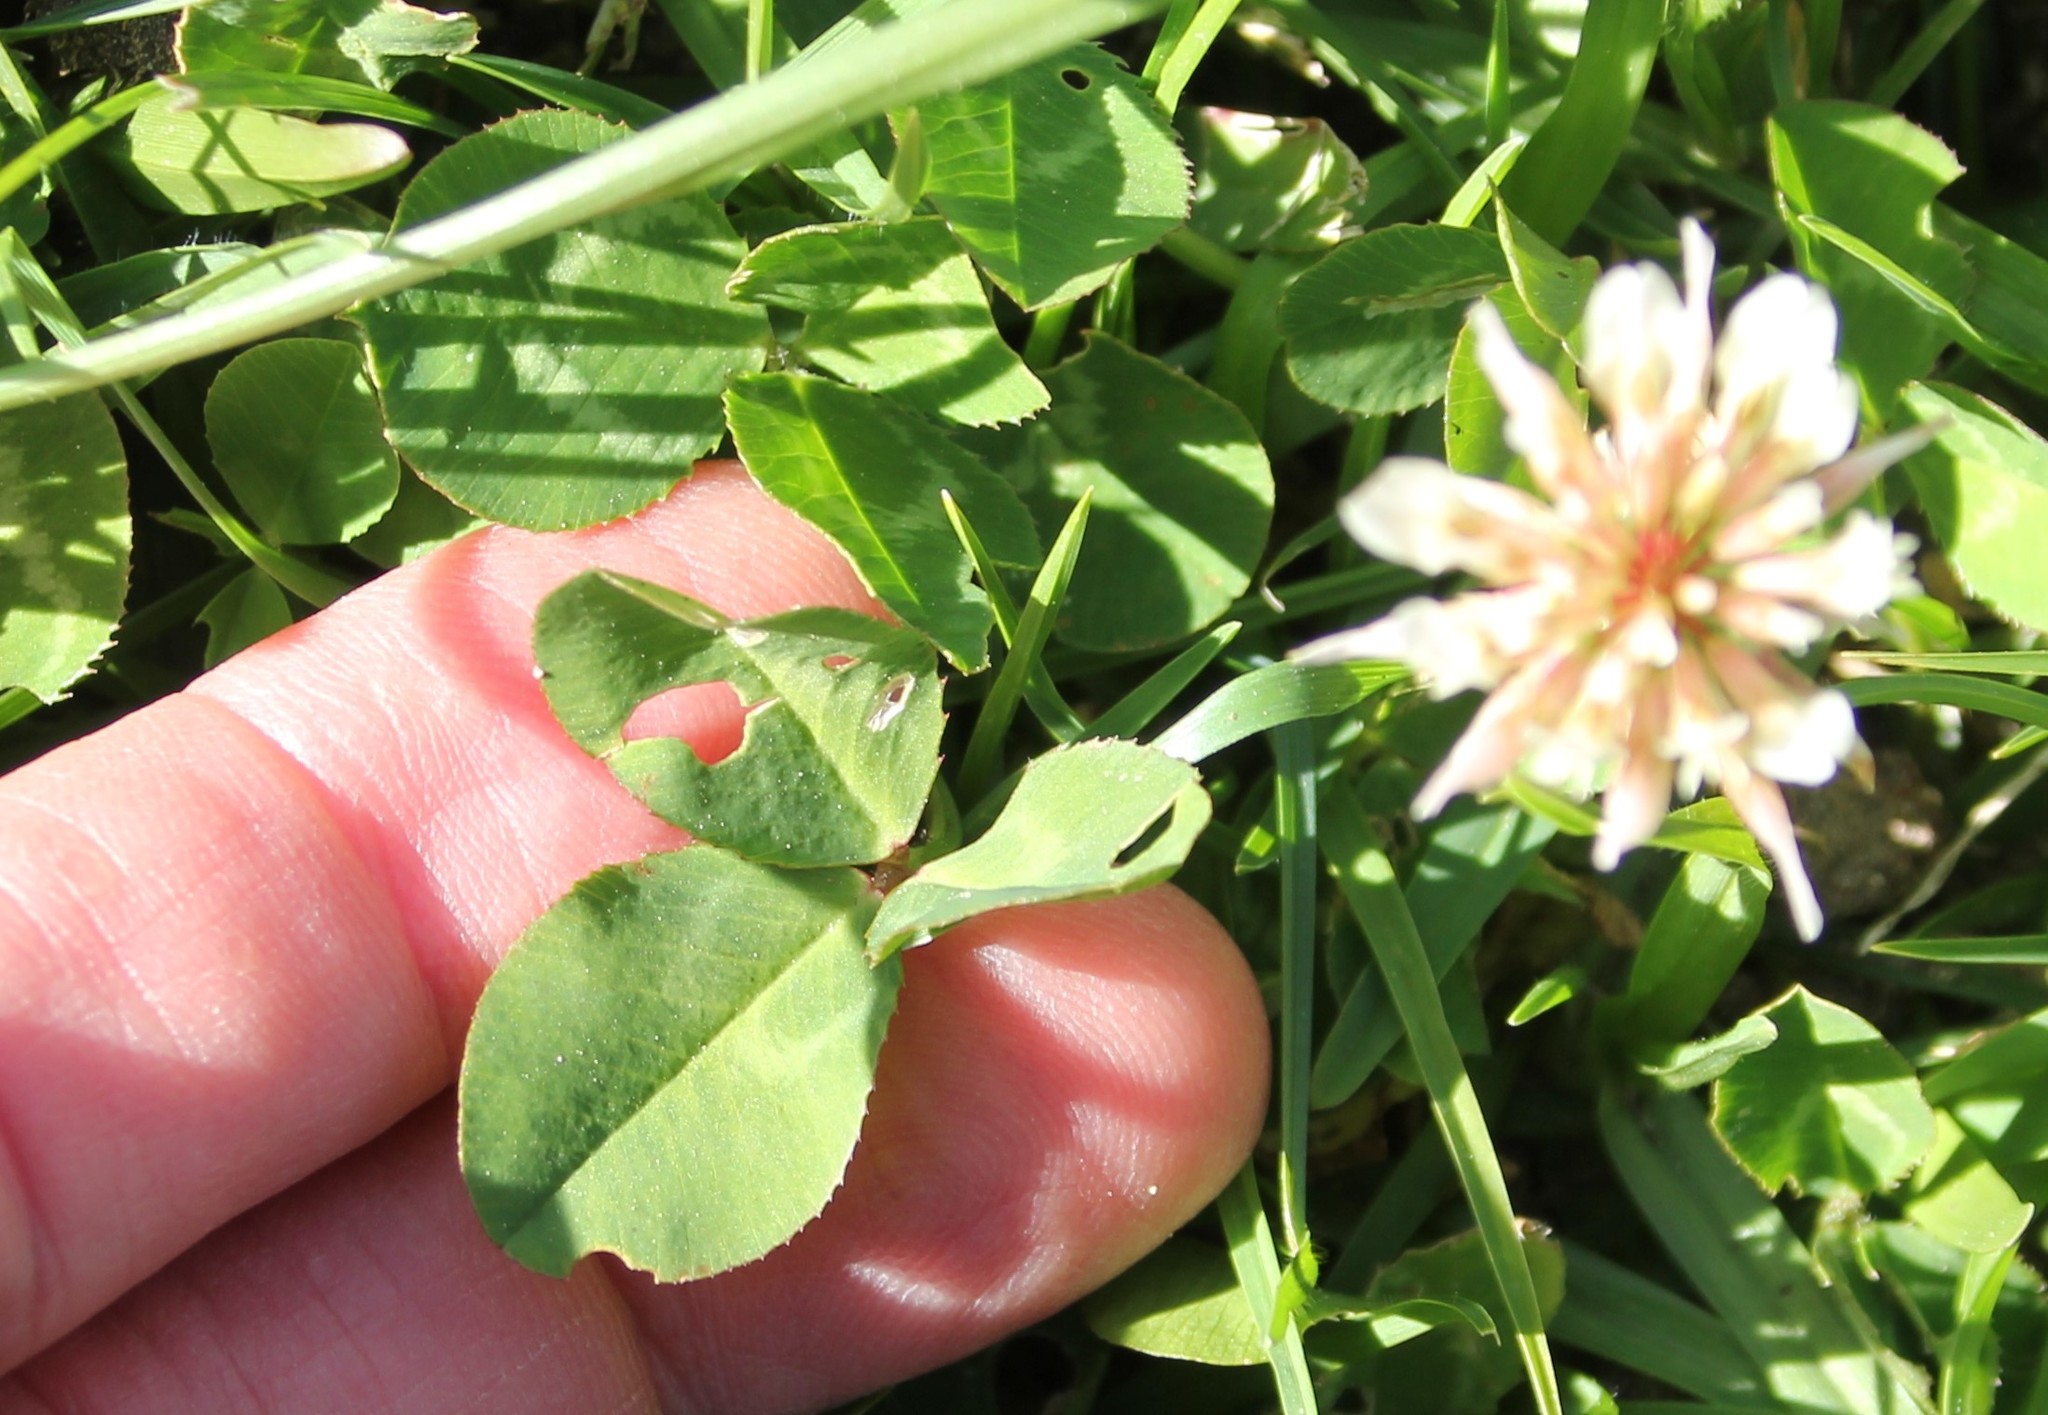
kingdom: Plantae
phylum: Tracheophyta
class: Magnoliopsida
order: Fabales
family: Fabaceae
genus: Trifolium
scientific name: Trifolium repens
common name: White clover
